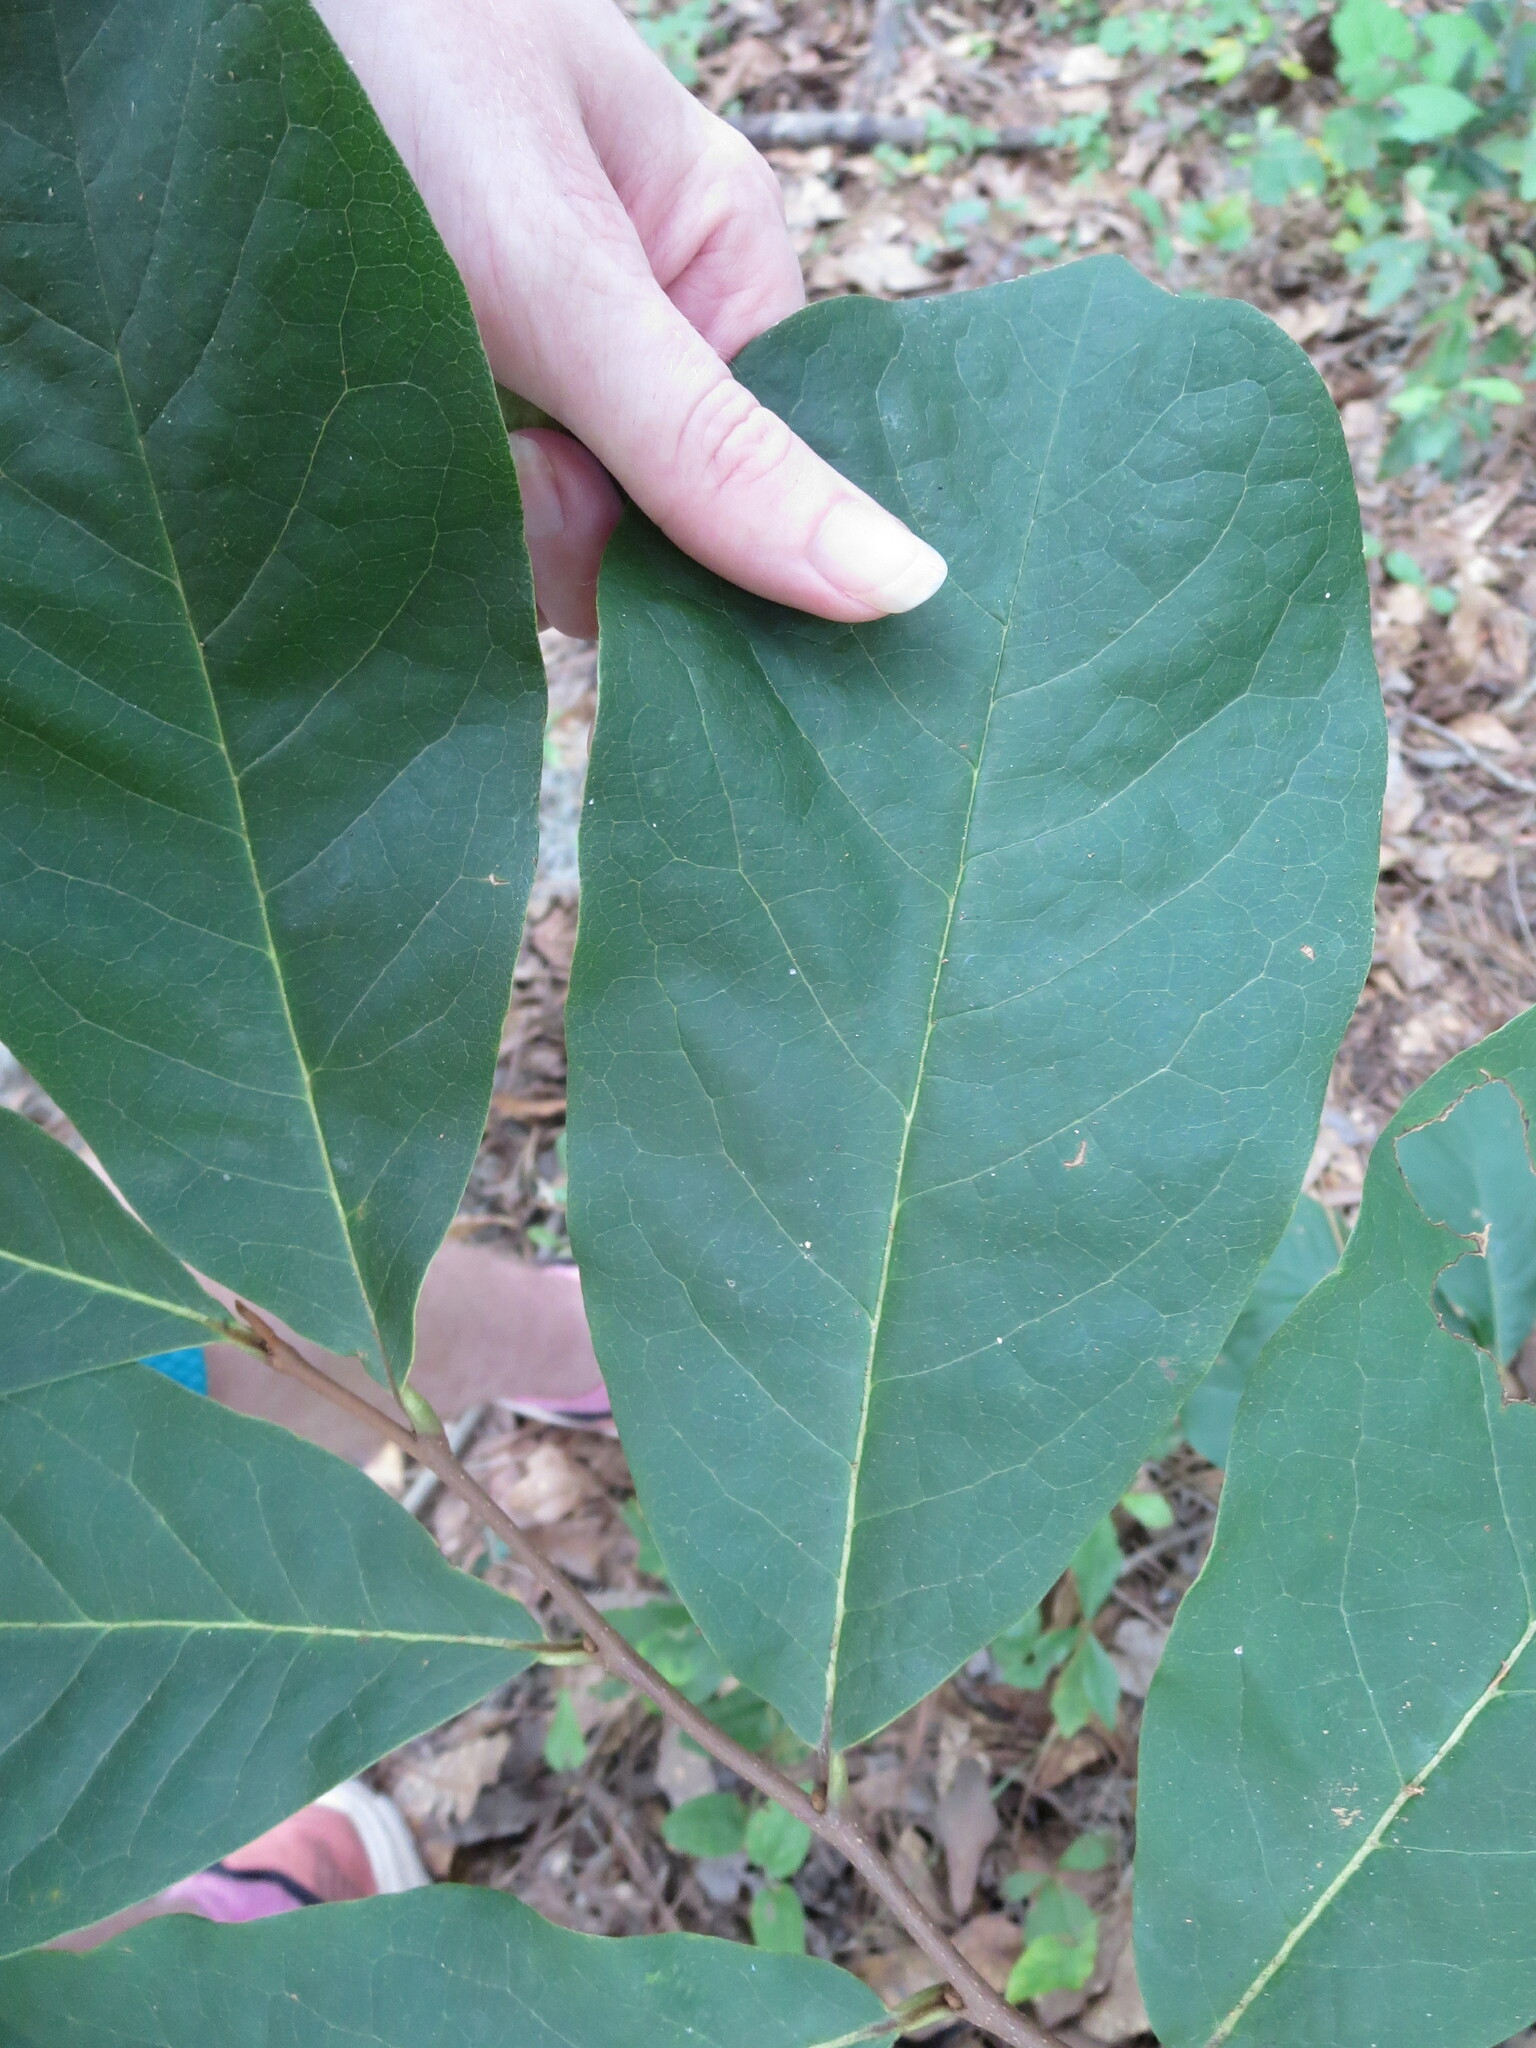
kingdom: Plantae
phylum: Tracheophyta
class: Magnoliopsida
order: Magnoliales
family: Annonaceae
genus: Asimina
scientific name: Asimina parviflora
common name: Dwarf pawpaw
